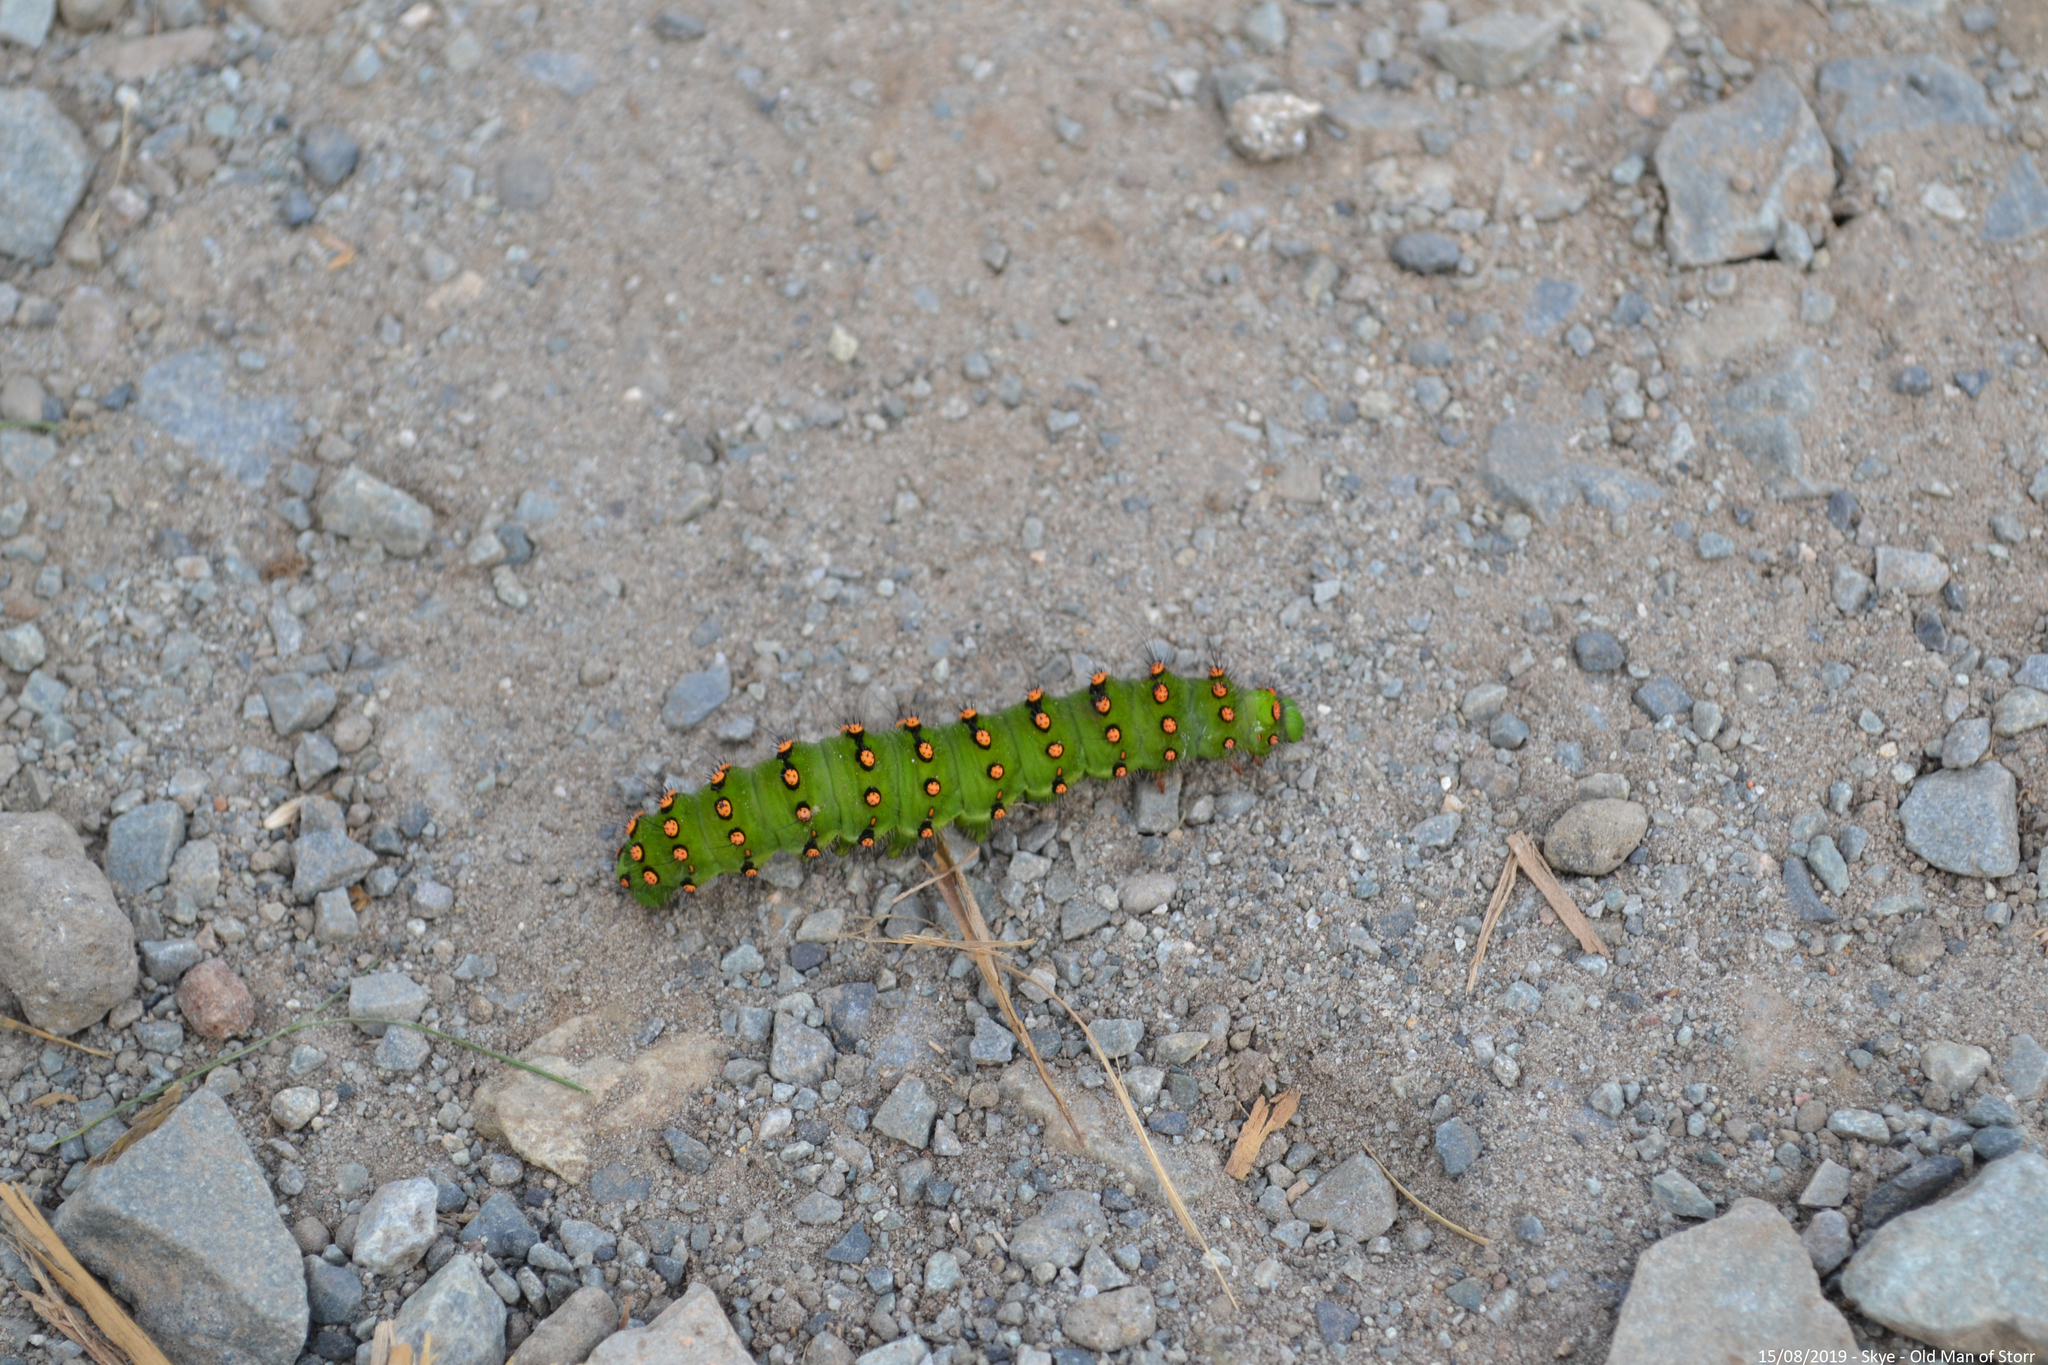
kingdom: Animalia
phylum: Arthropoda
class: Insecta
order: Lepidoptera
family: Saturniidae
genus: Saturnia
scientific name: Saturnia pavonia
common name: Emperor moth
